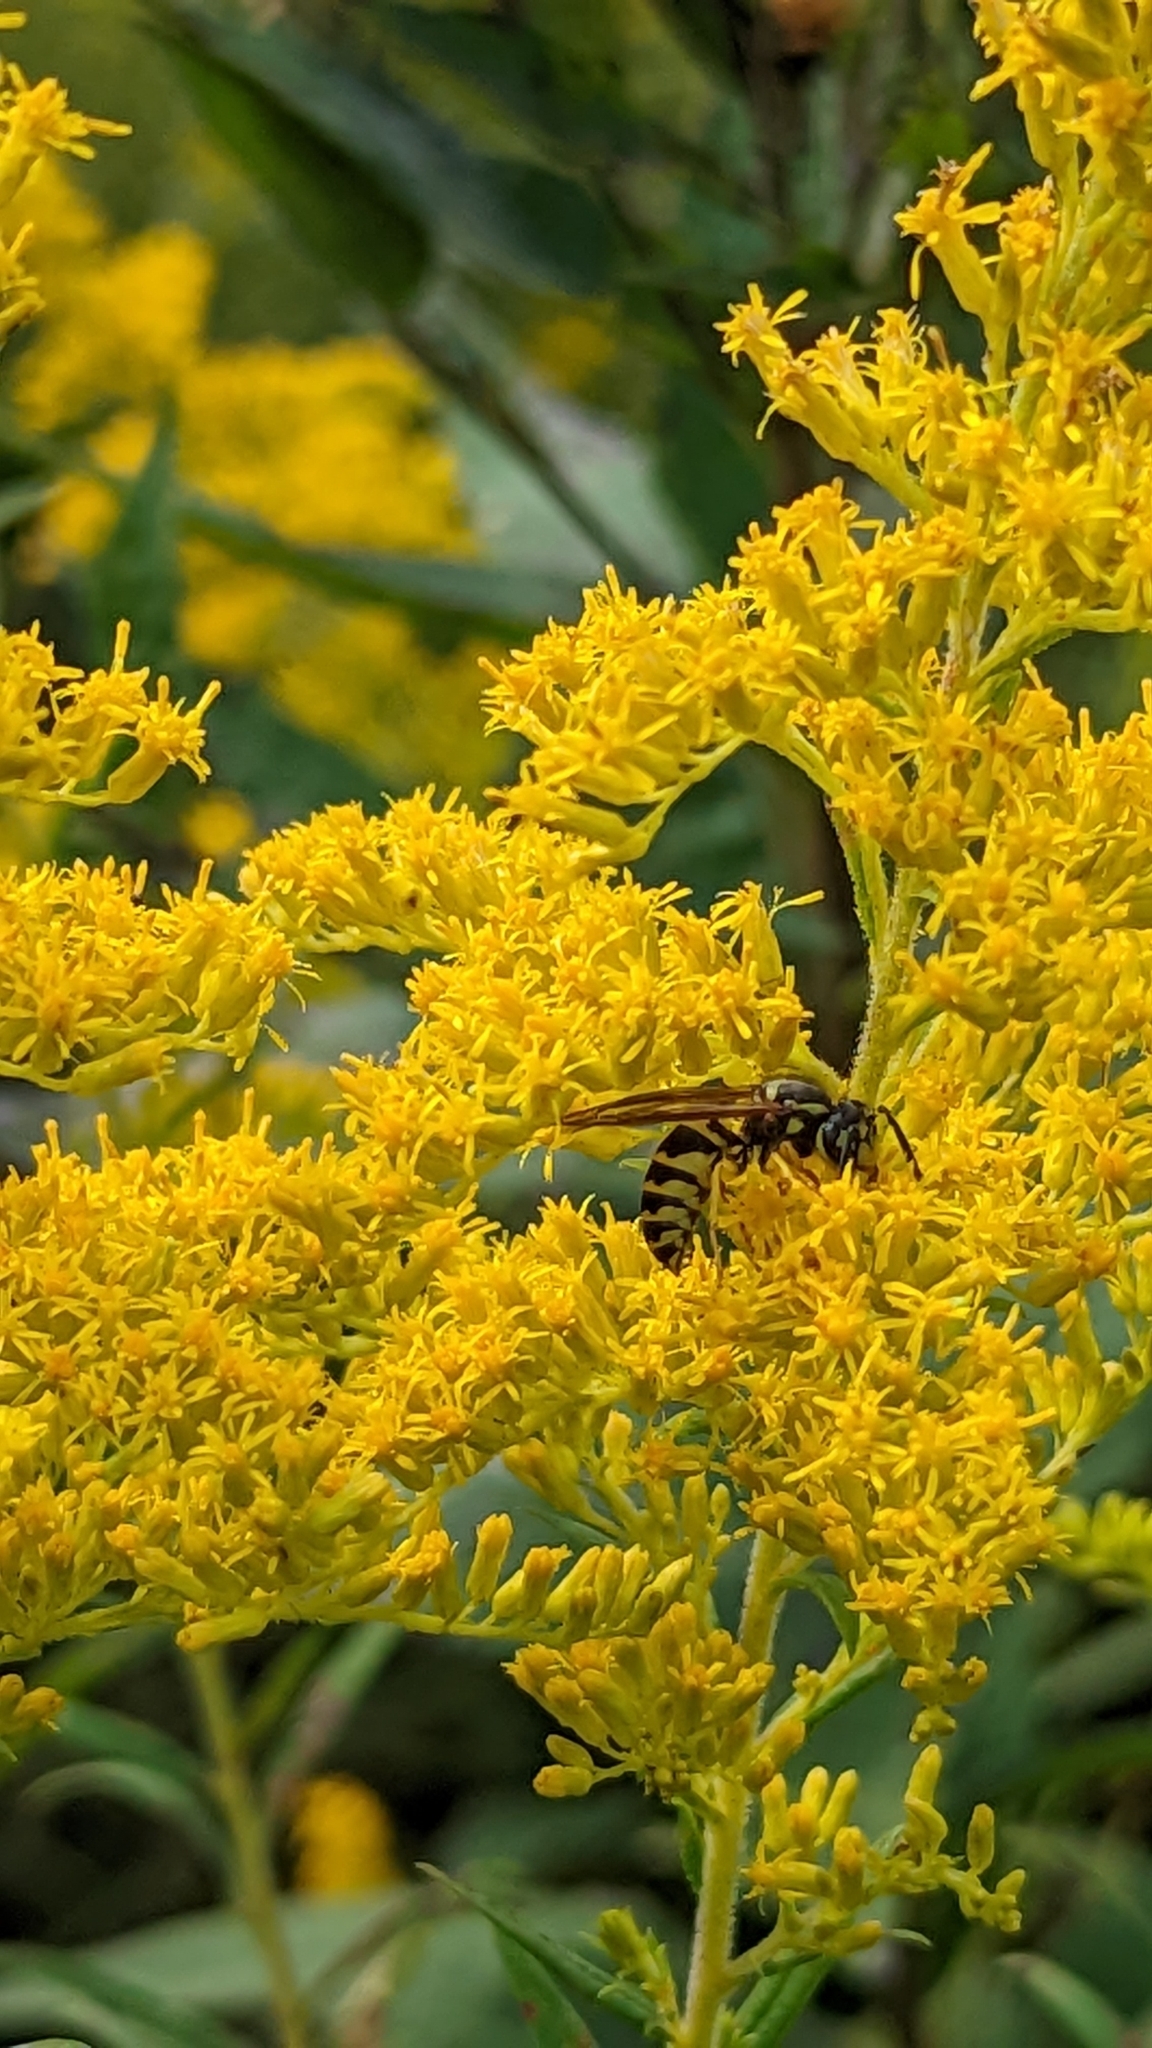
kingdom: Animalia
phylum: Arthropoda
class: Insecta
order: Hymenoptera
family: Vespidae
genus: Vespula
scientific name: Vespula maculifrons
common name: Eastern yellowjacket
